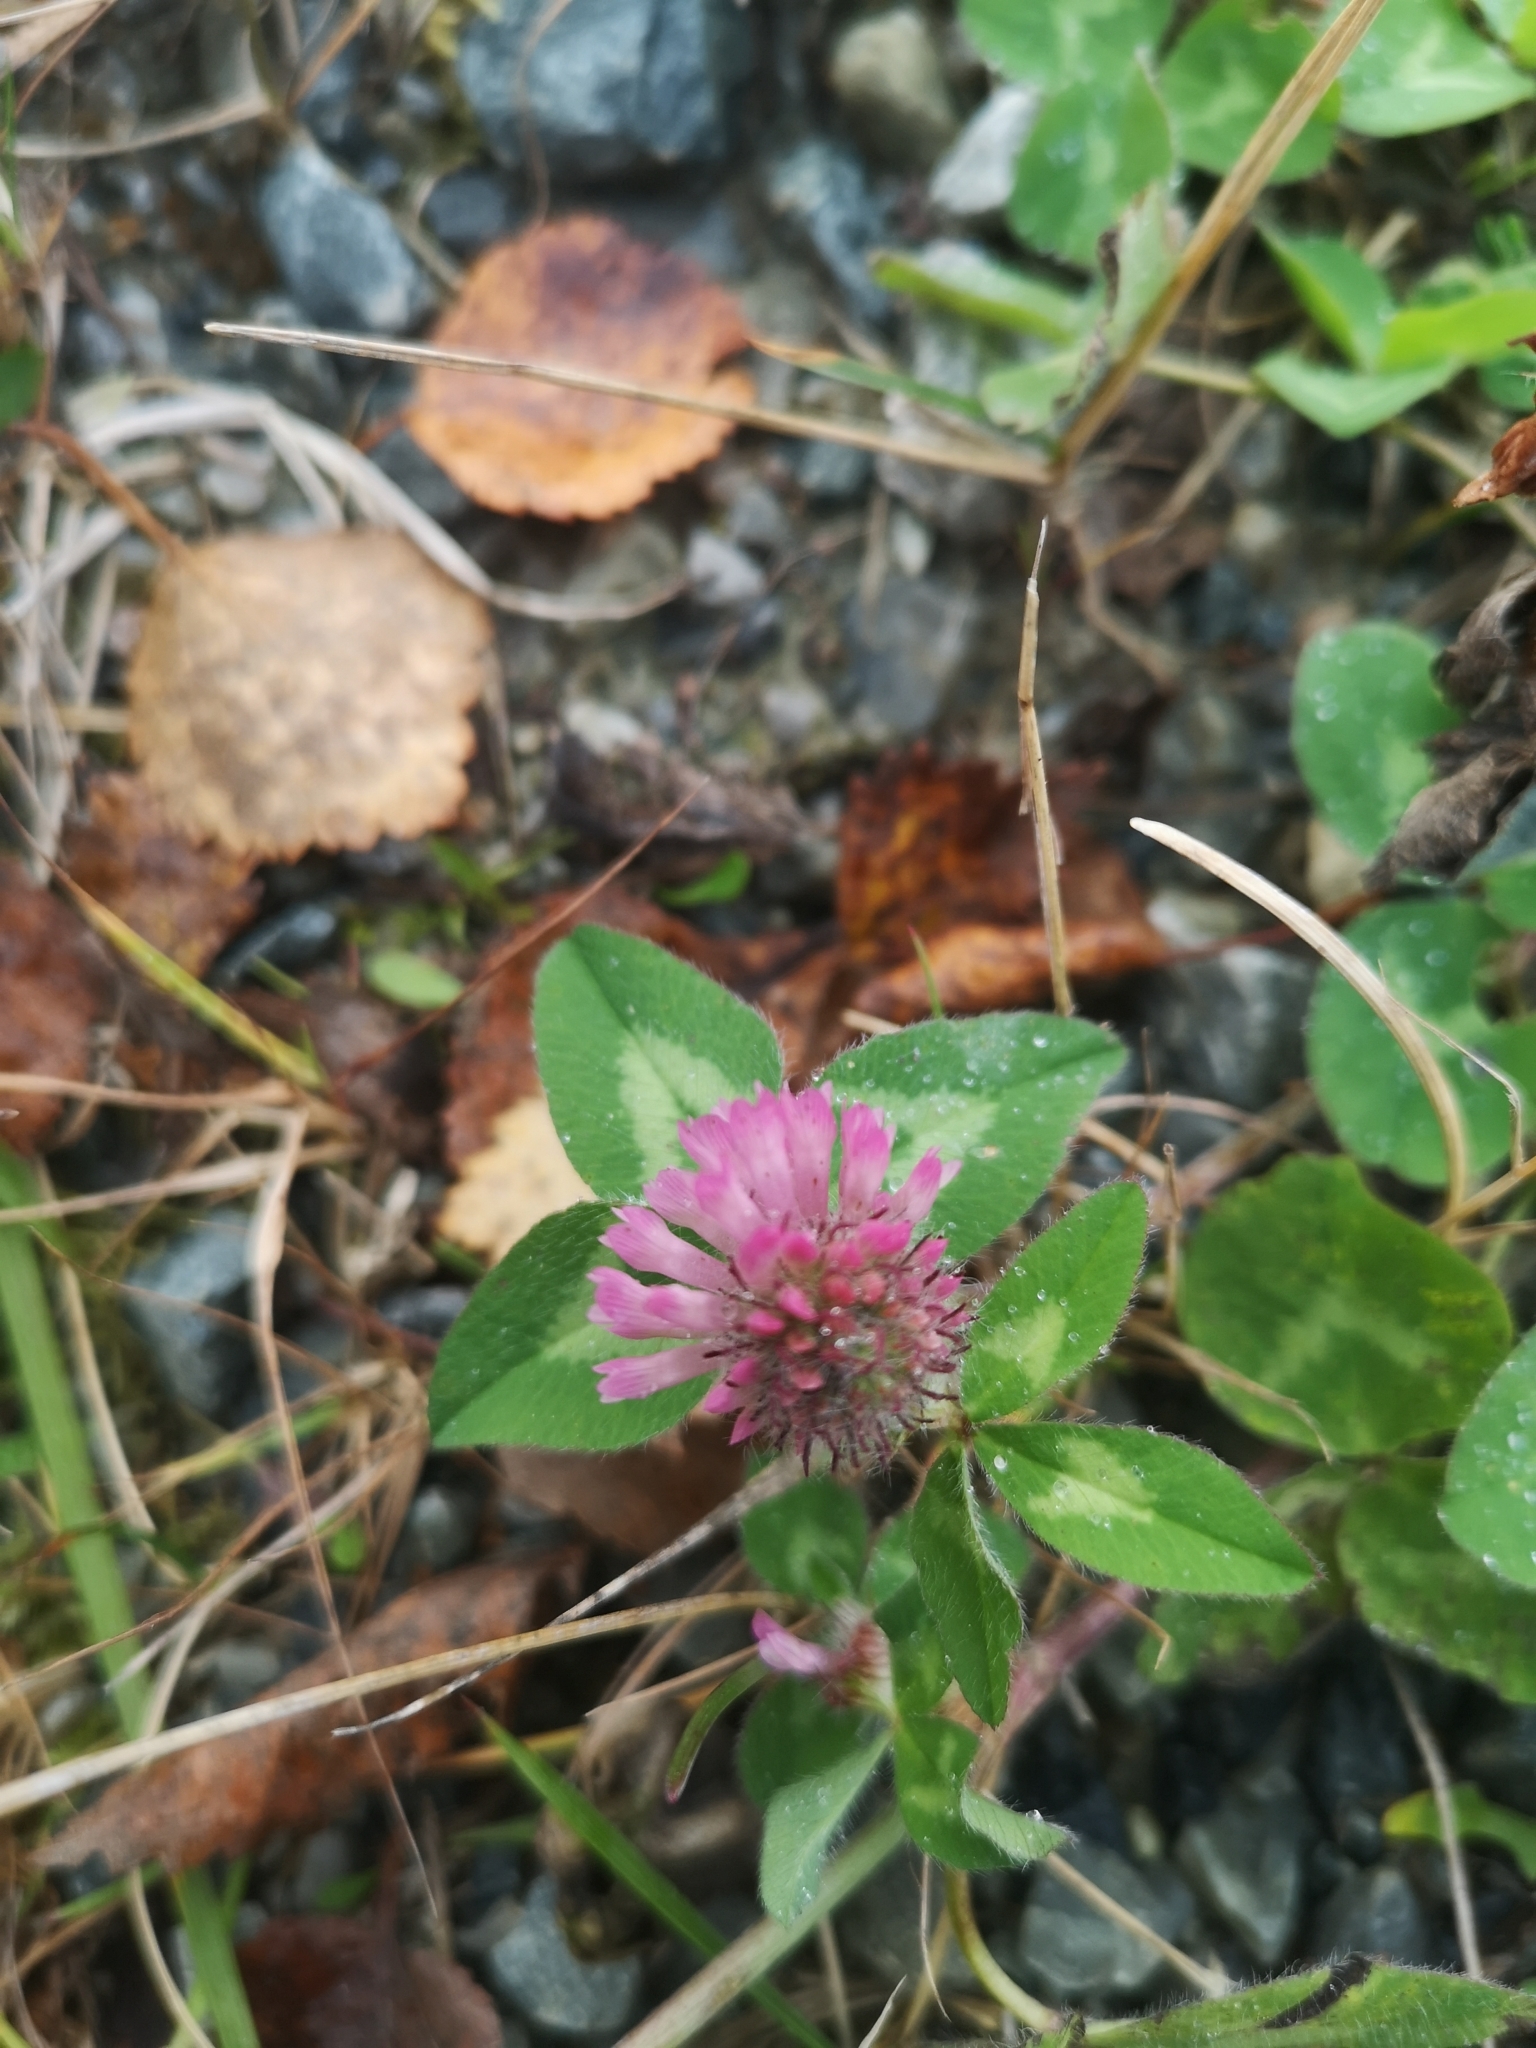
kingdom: Plantae
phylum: Tracheophyta
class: Magnoliopsida
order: Fabales
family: Fabaceae
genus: Trifolium
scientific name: Trifolium pratense
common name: Red clover
